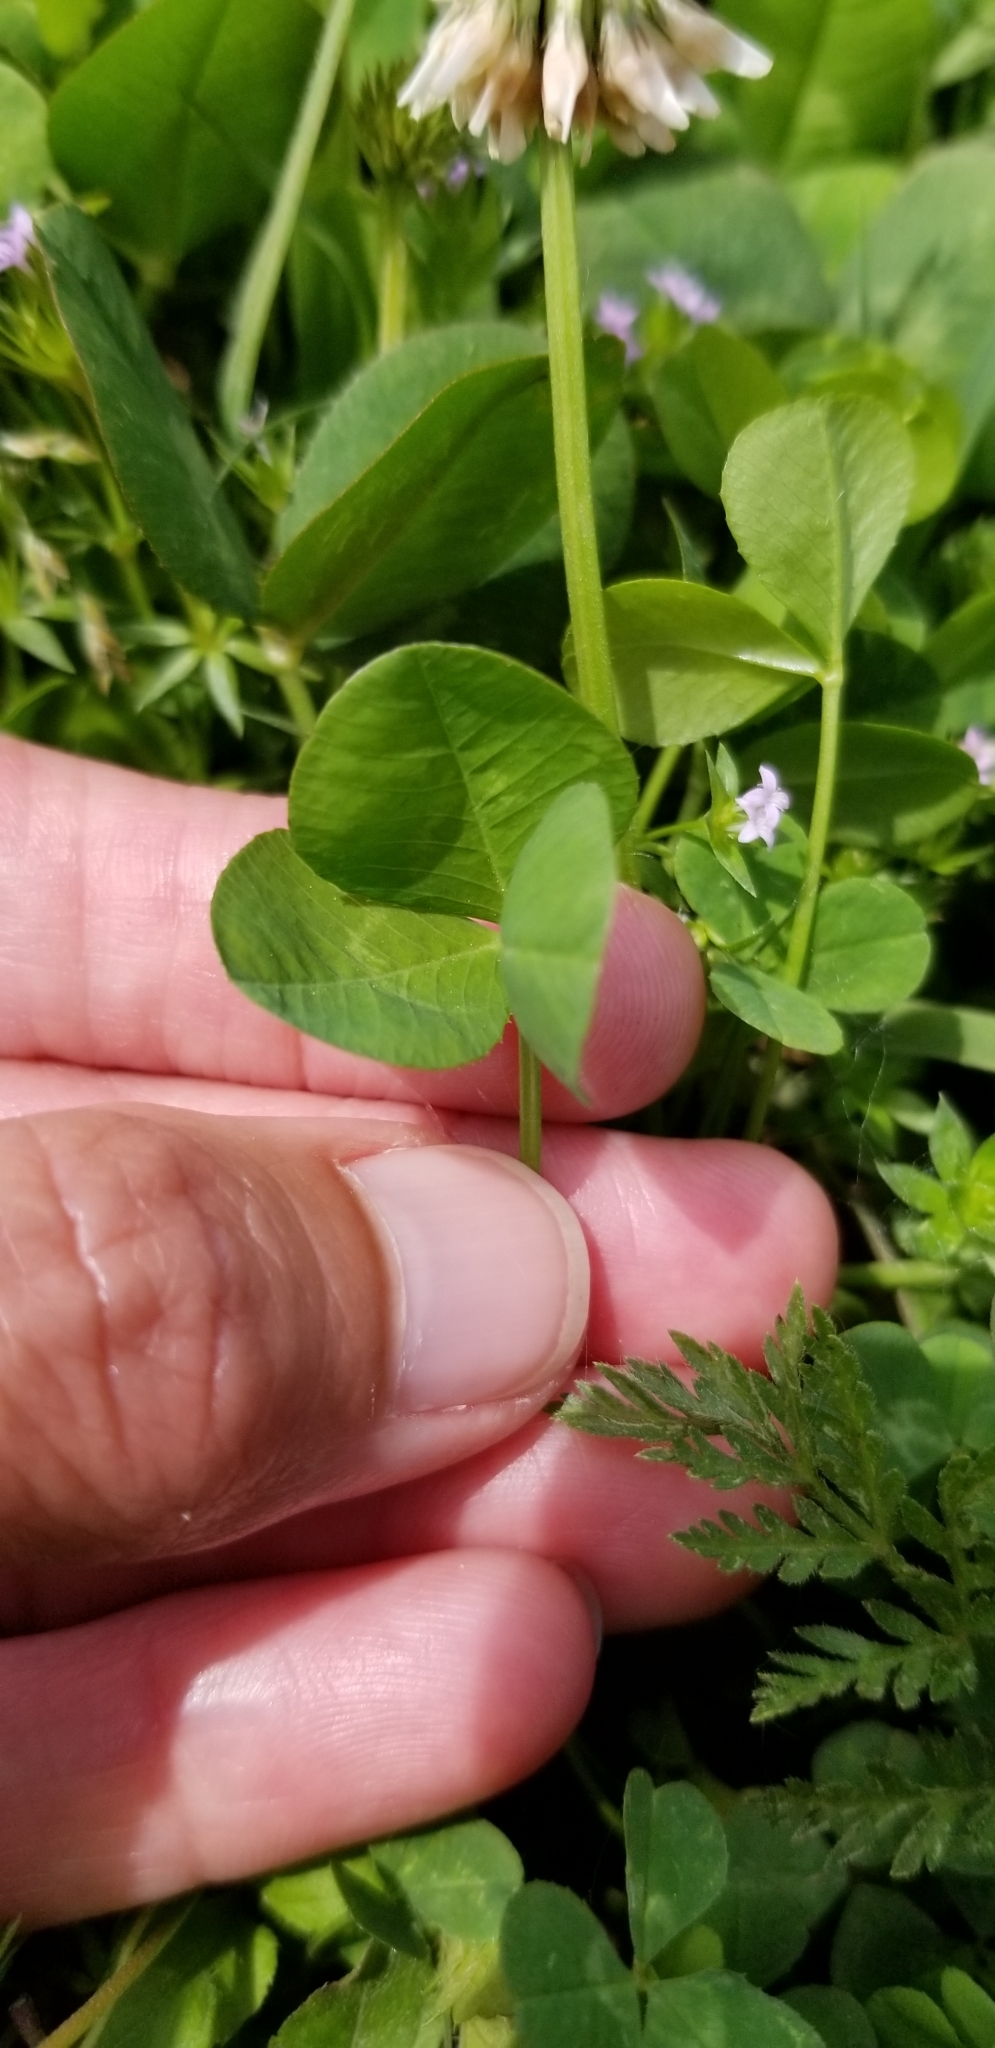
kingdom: Plantae
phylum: Tracheophyta
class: Magnoliopsida
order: Fabales
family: Fabaceae
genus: Trifolium
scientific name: Trifolium repens
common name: White clover
